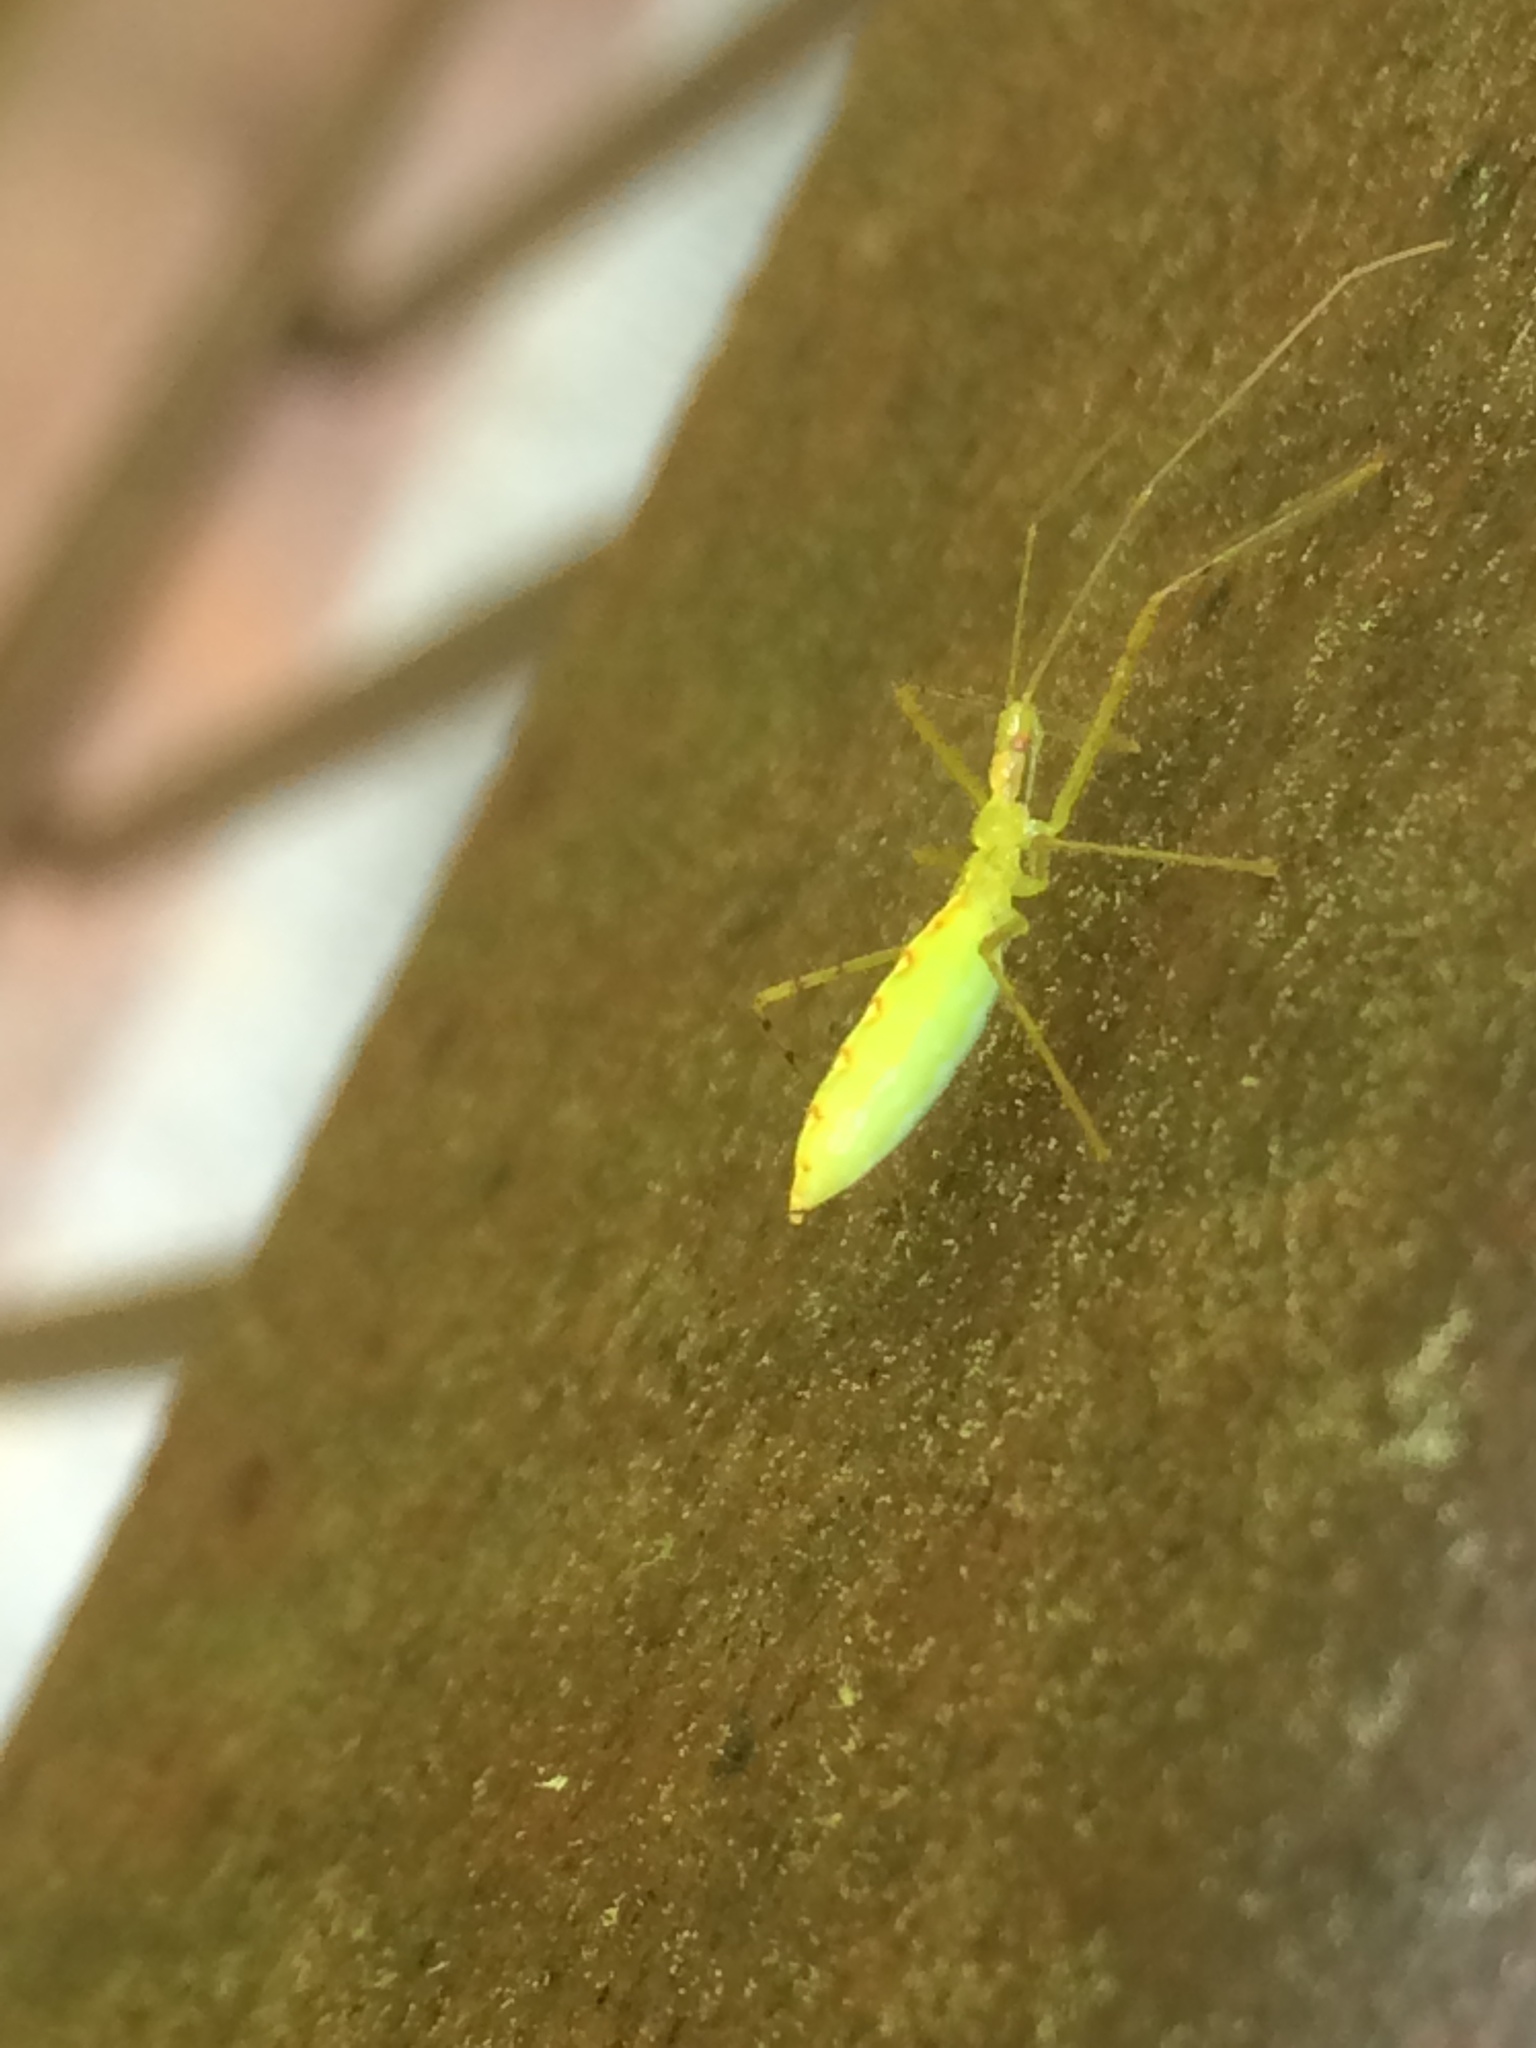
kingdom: Animalia
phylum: Arthropoda
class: Insecta
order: Hemiptera
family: Reduviidae
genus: Zelus
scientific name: Zelus luridus
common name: Pale green assassin bug
